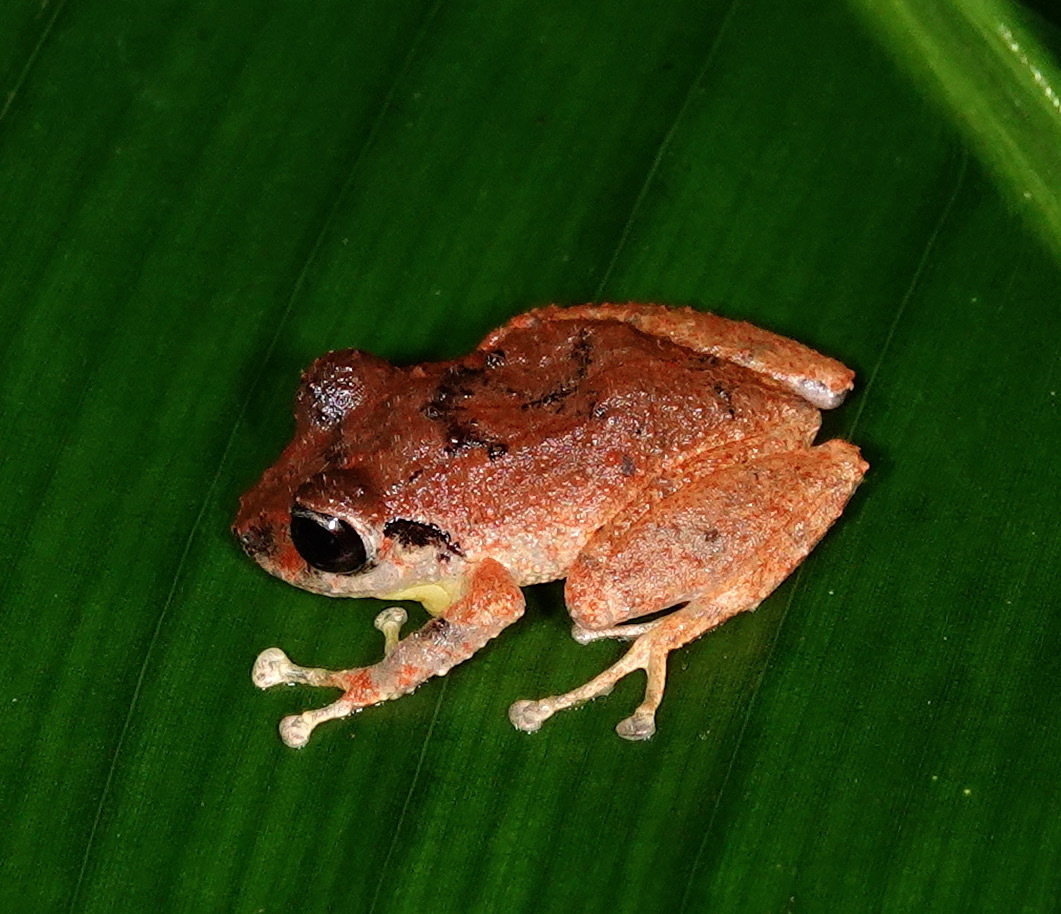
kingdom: Animalia
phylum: Chordata
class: Amphibia
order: Anura
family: Craugastoridae
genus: Pristimantis
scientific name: Pristimantis palmeri
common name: Palmer's robber frog
